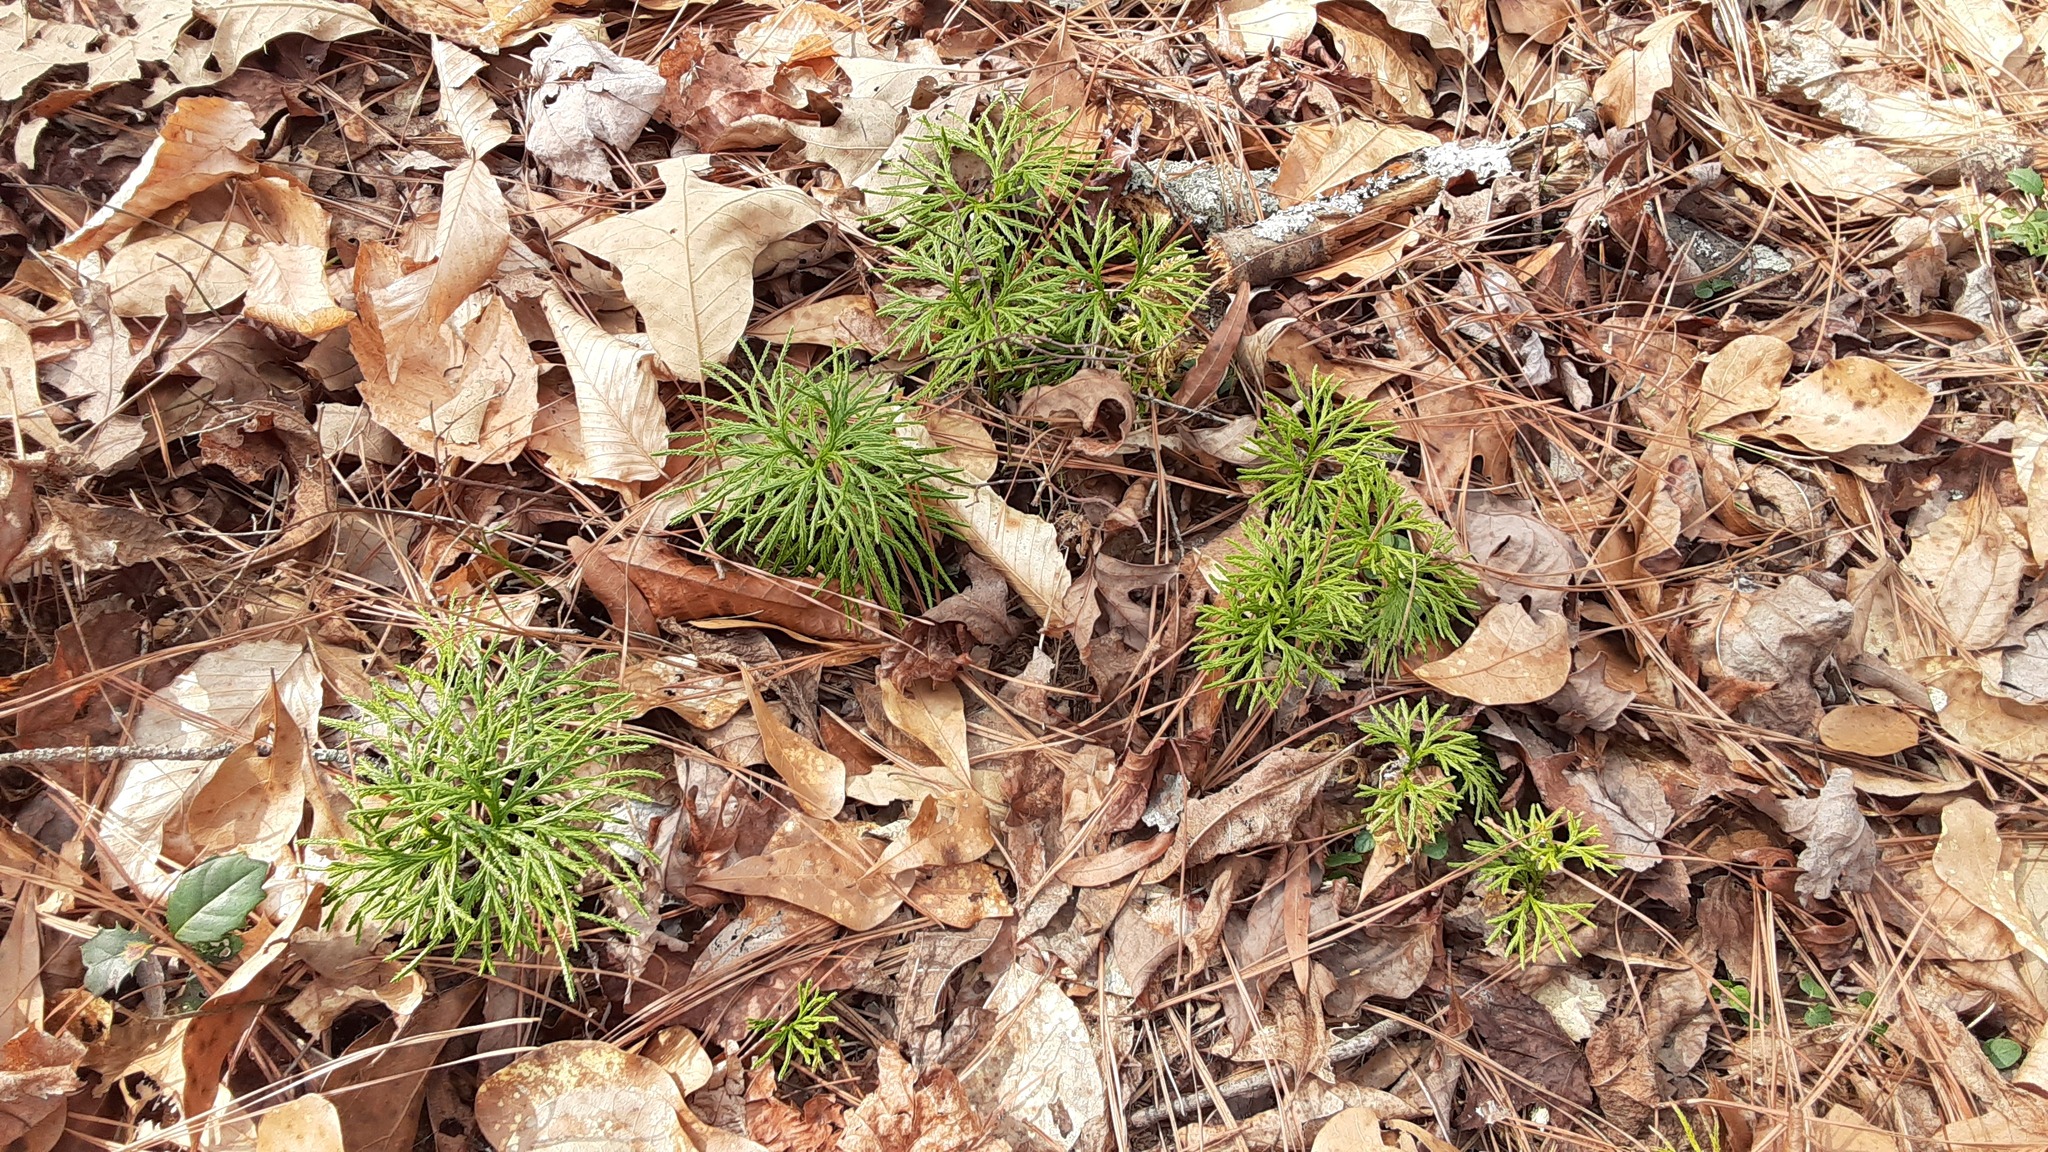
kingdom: Plantae
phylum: Tracheophyta
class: Lycopodiopsida
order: Lycopodiales
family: Lycopodiaceae
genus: Diphasiastrum
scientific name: Diphasiastrum digitatum
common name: Southern running-pine
